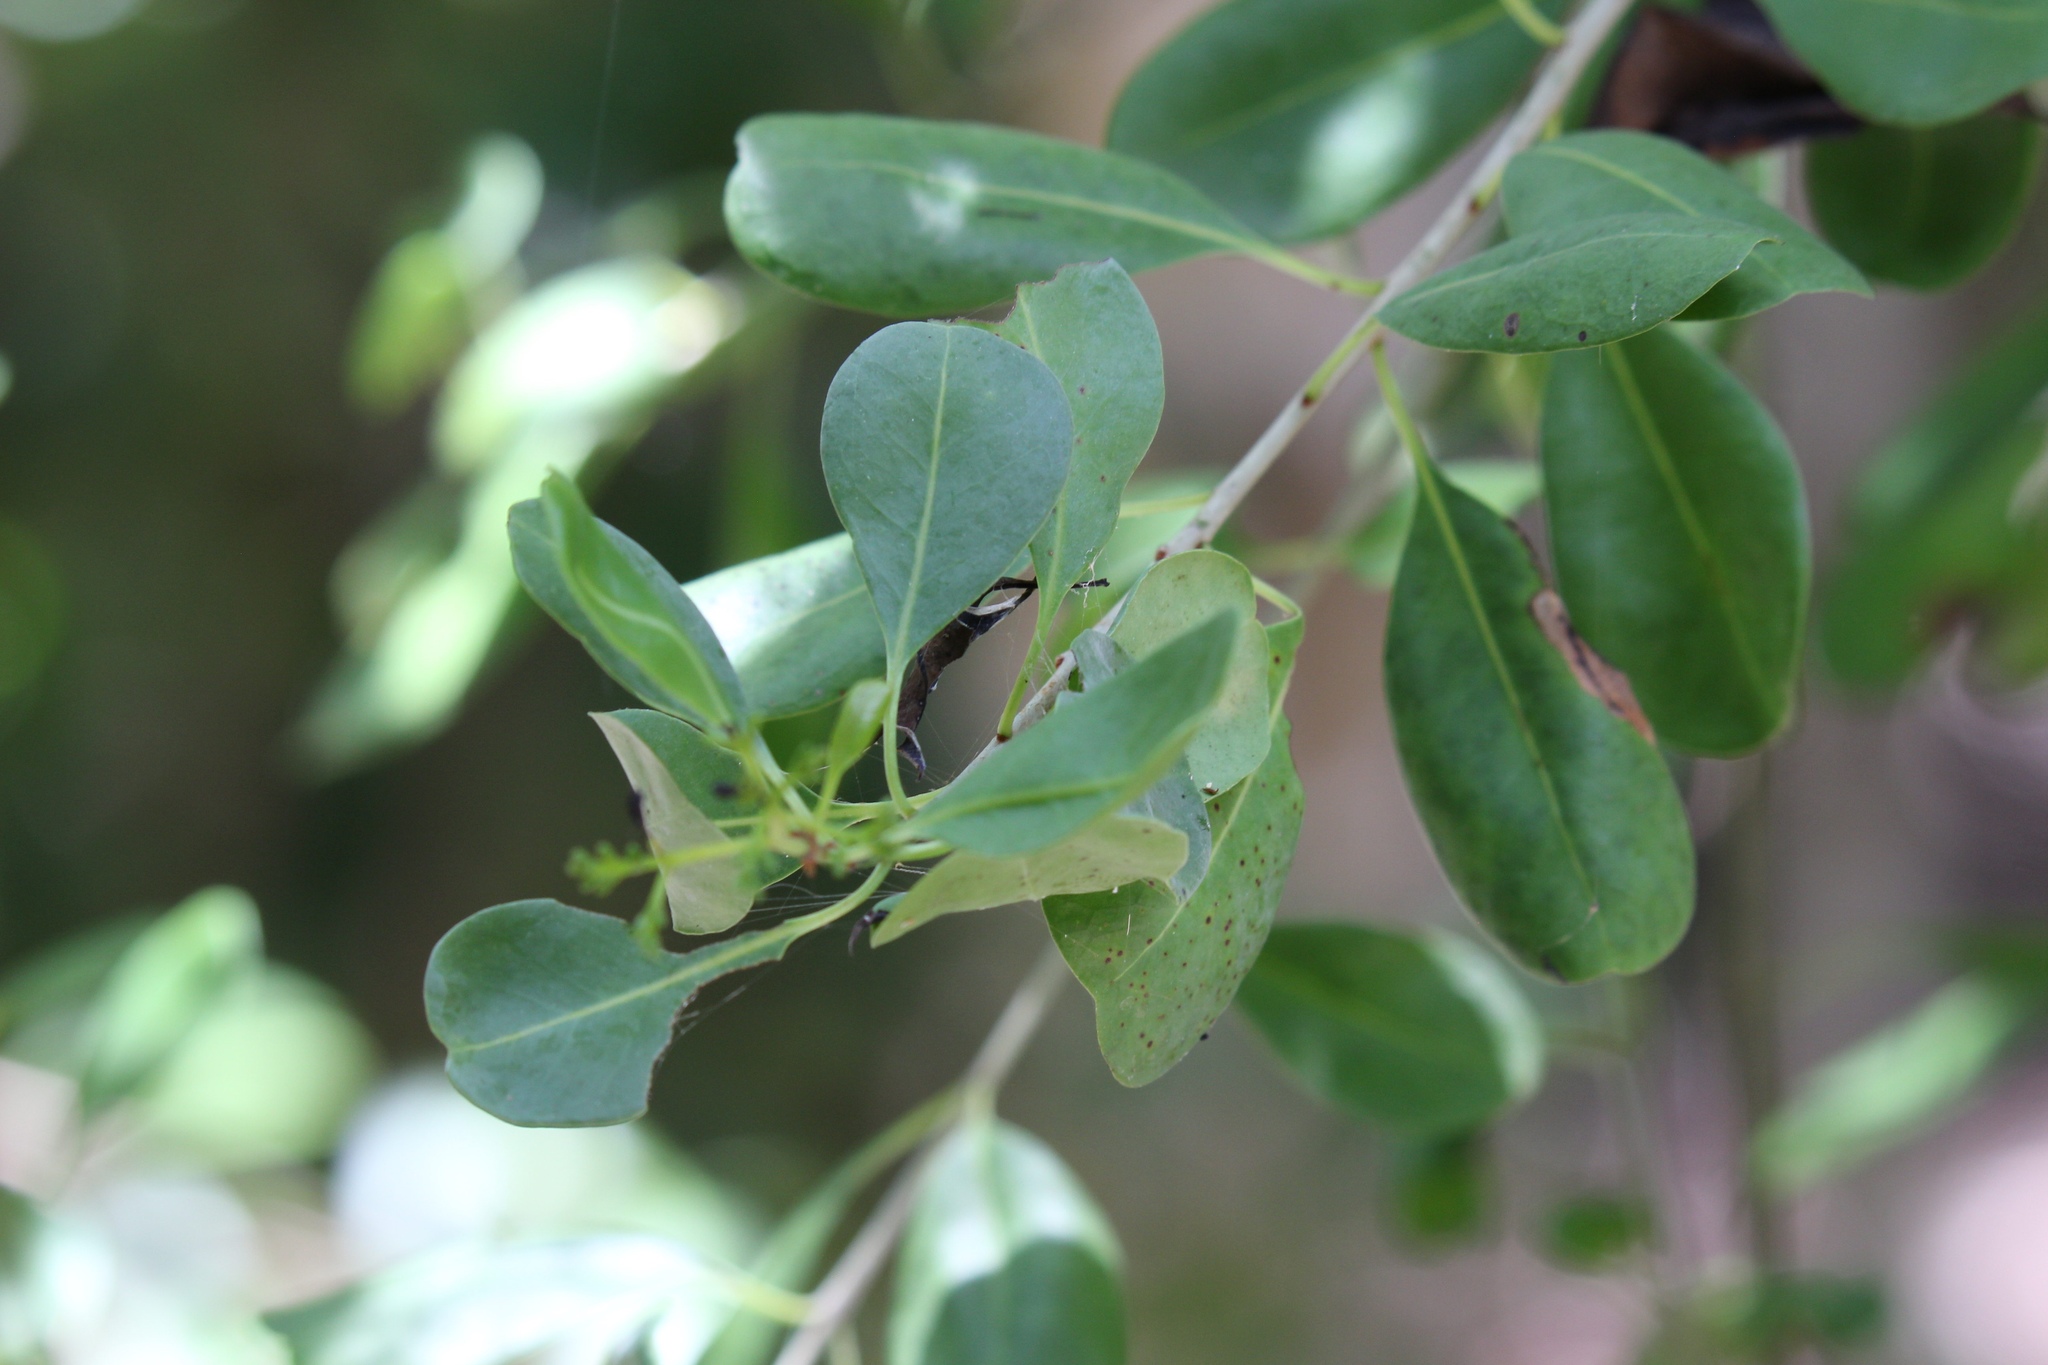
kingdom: Plantae
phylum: Tracheophyta
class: Magnoliopsida
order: Caryophyllales
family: Nyctaginaceae
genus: Guapira
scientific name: Guapira discolor
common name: Beeftree
